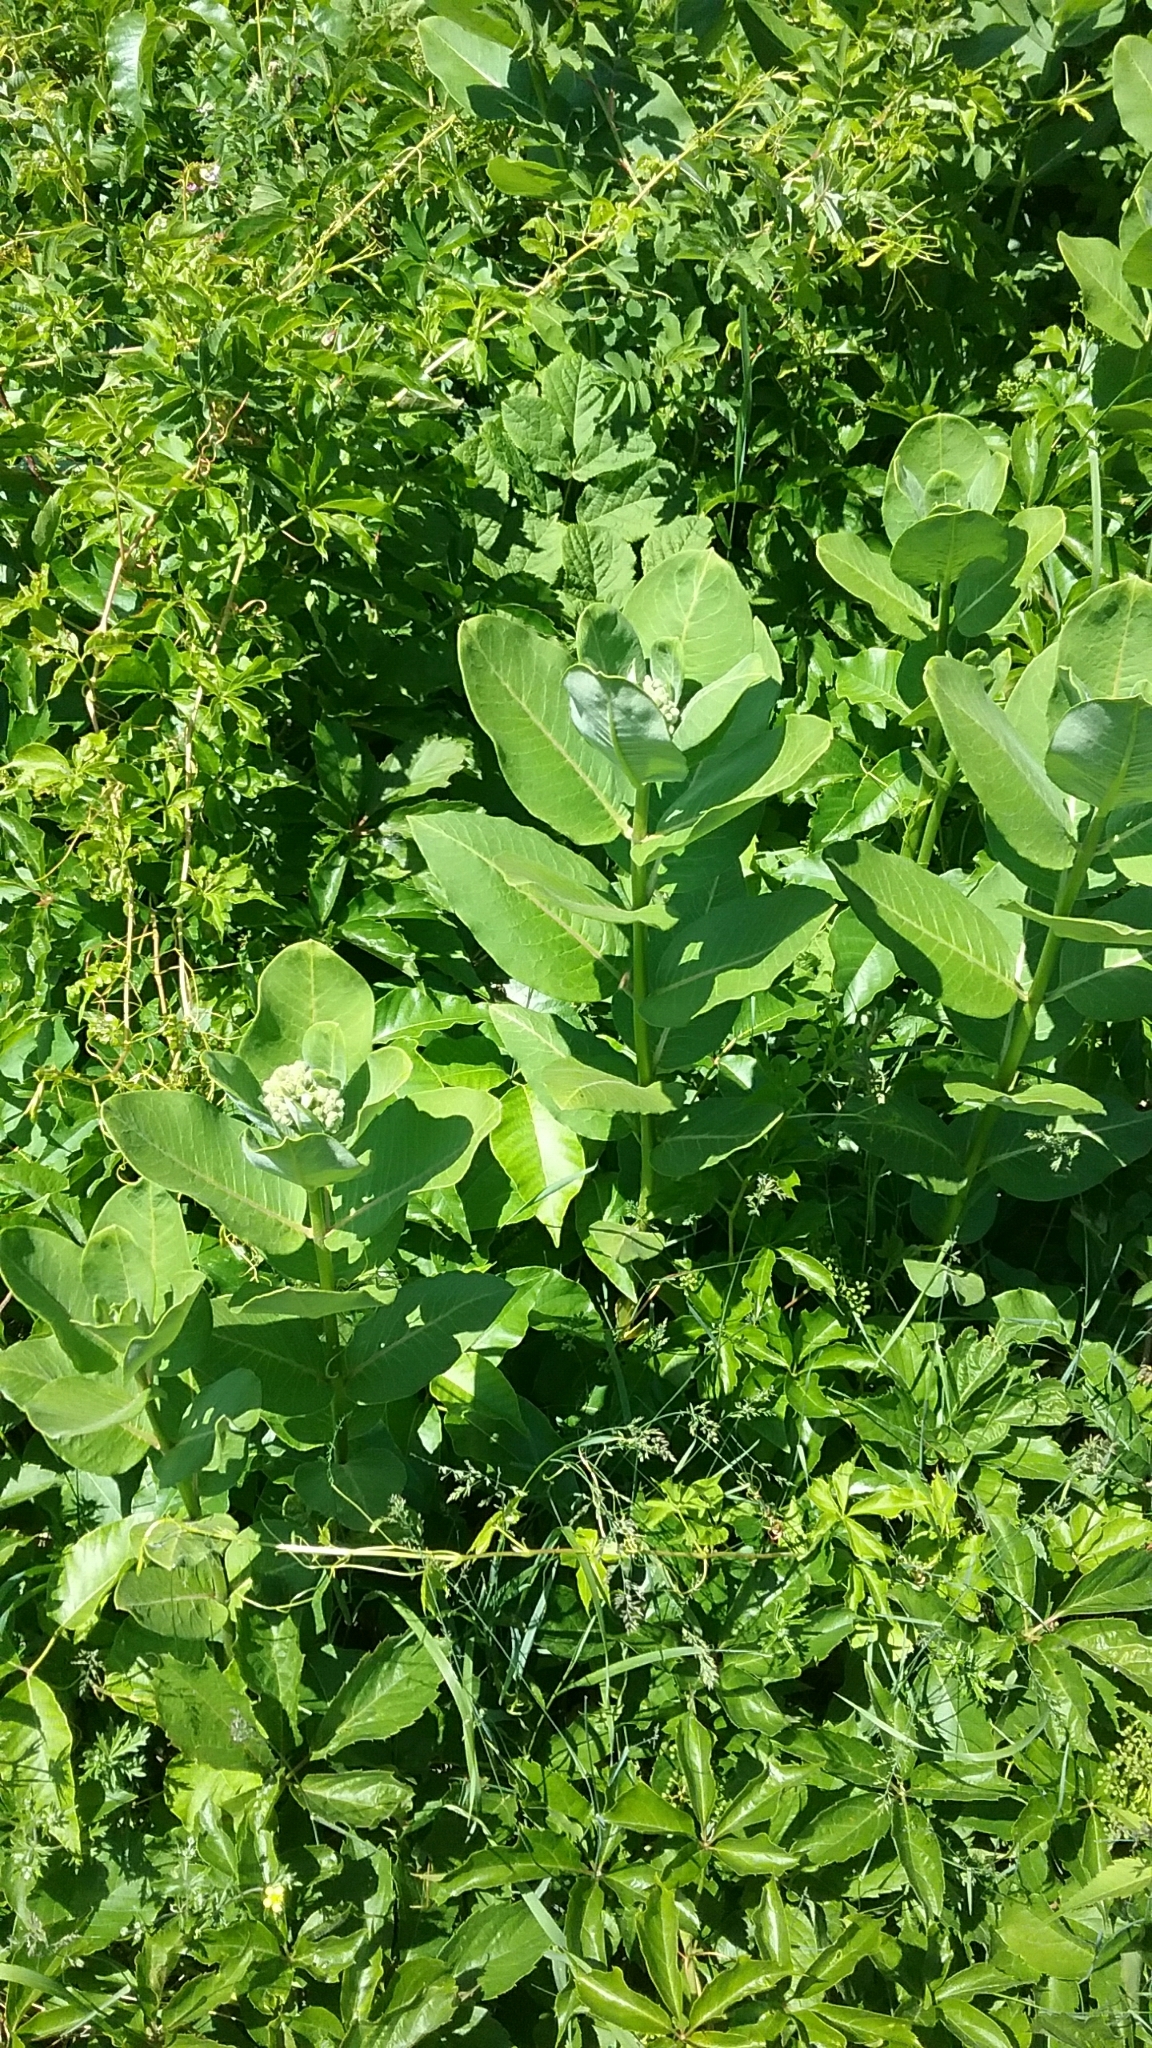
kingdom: Plantae
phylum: Tracheophyta
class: Magnoliopsida
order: Gentianales
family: Apocynaceae
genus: Asclepias
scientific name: Asclepias syriaca
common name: Common milkweed
